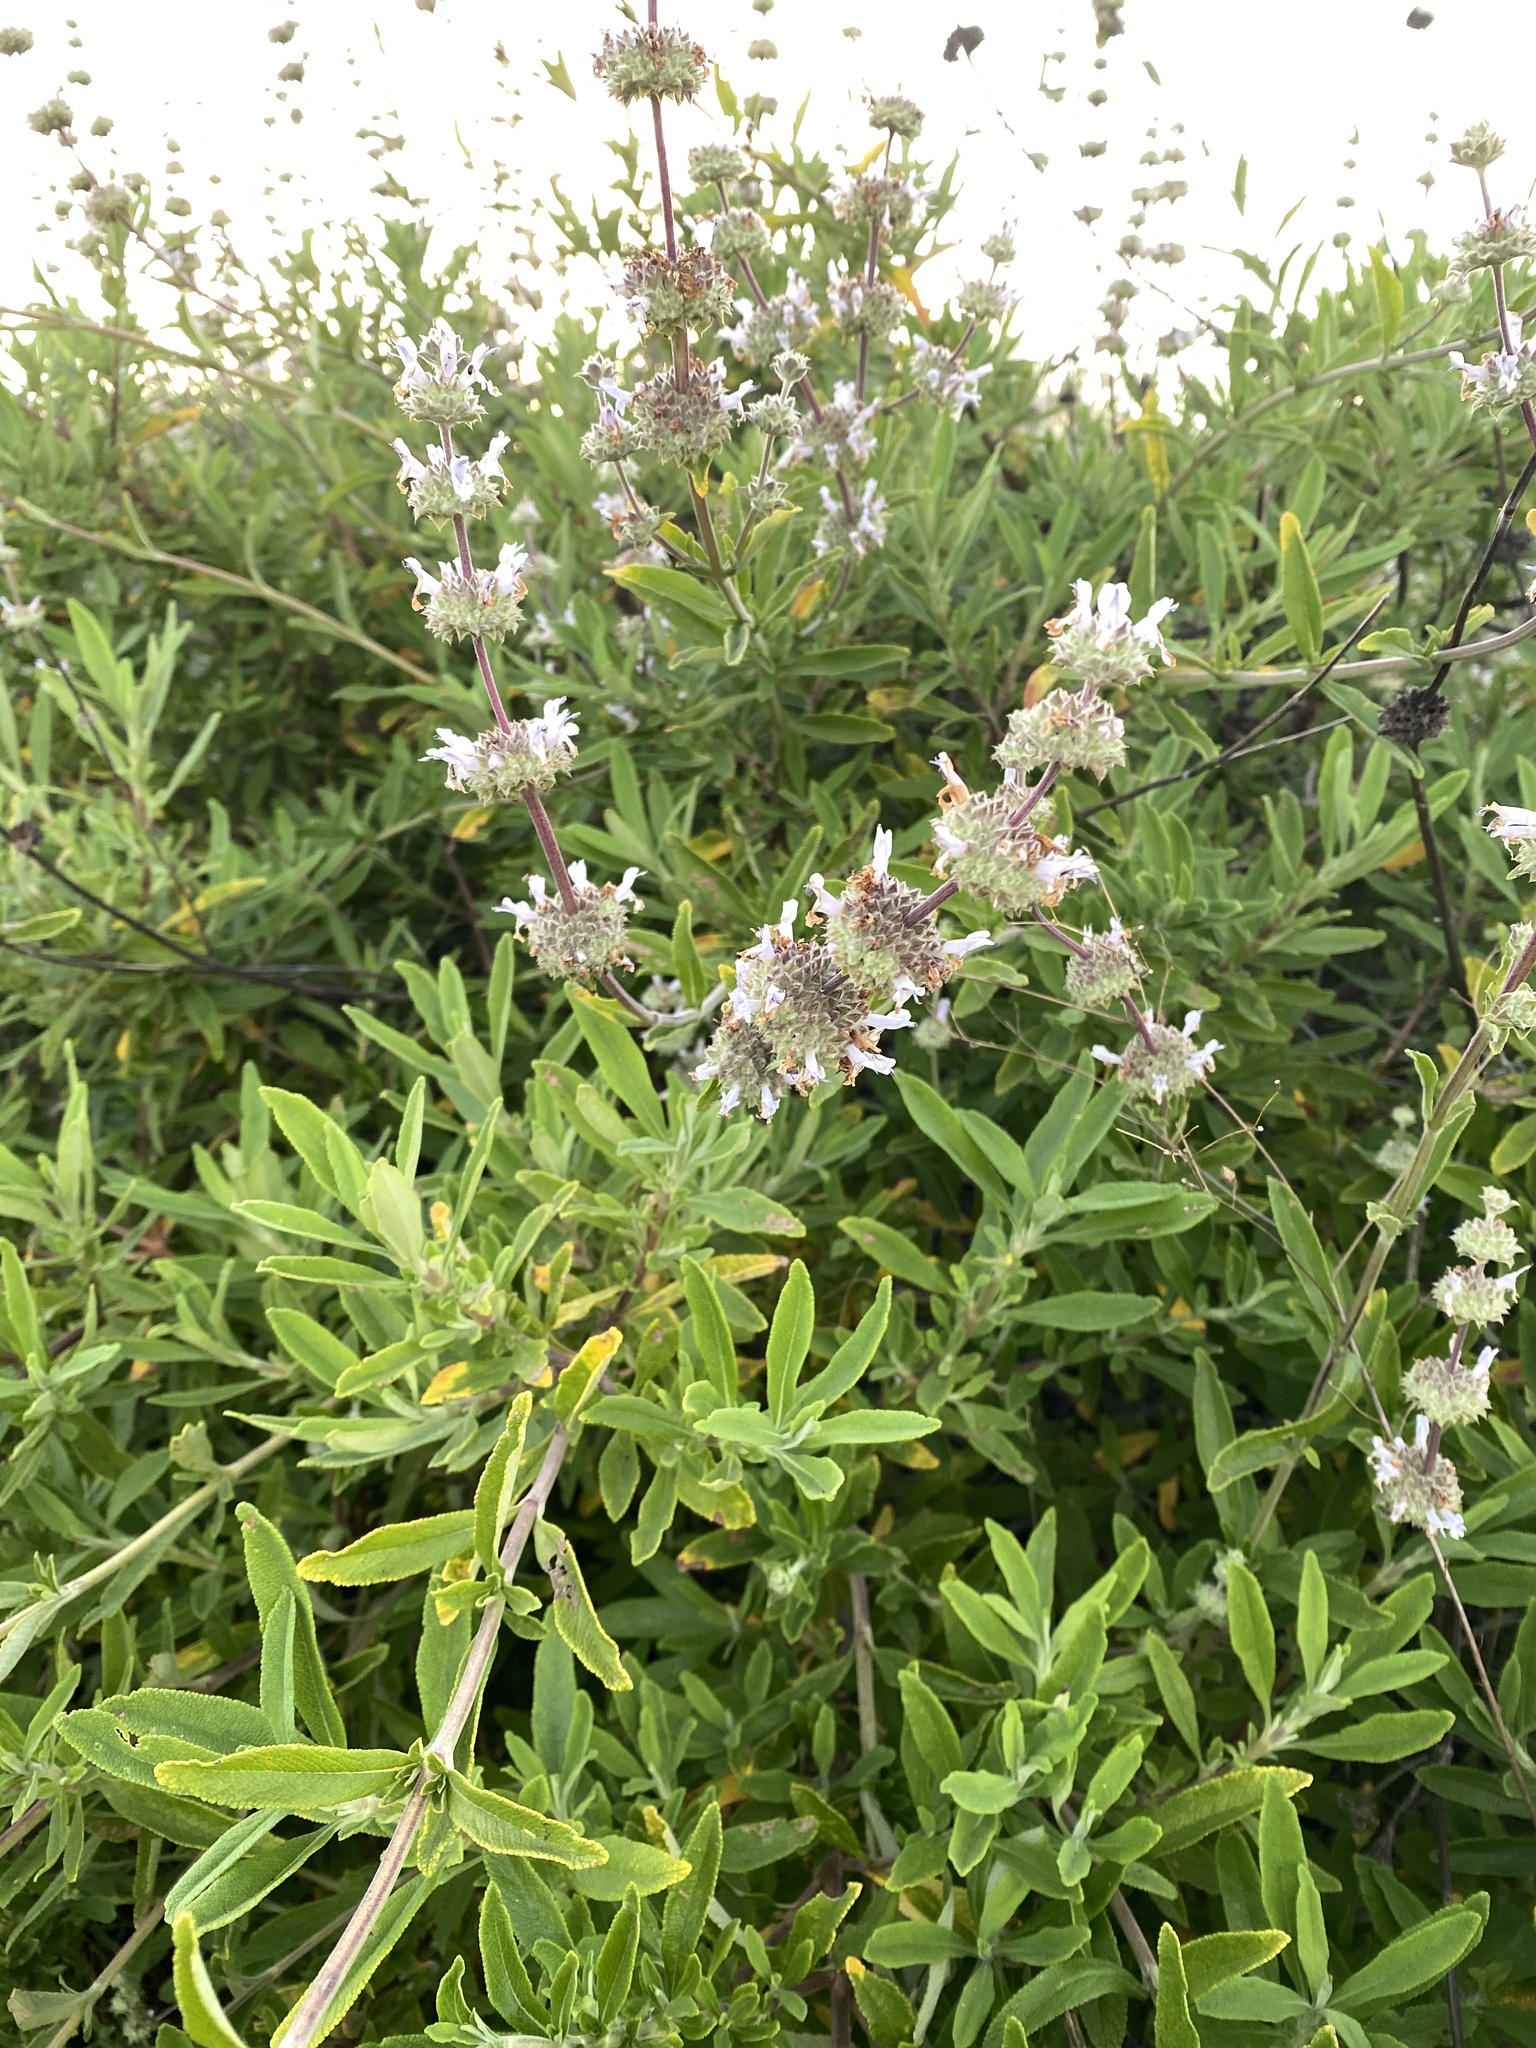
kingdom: Plantae
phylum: Tracheophyta
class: Magnoliopsida
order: Lamiales
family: Lamiaceae
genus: Salvia
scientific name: Salvia mellifera
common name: Black sage
